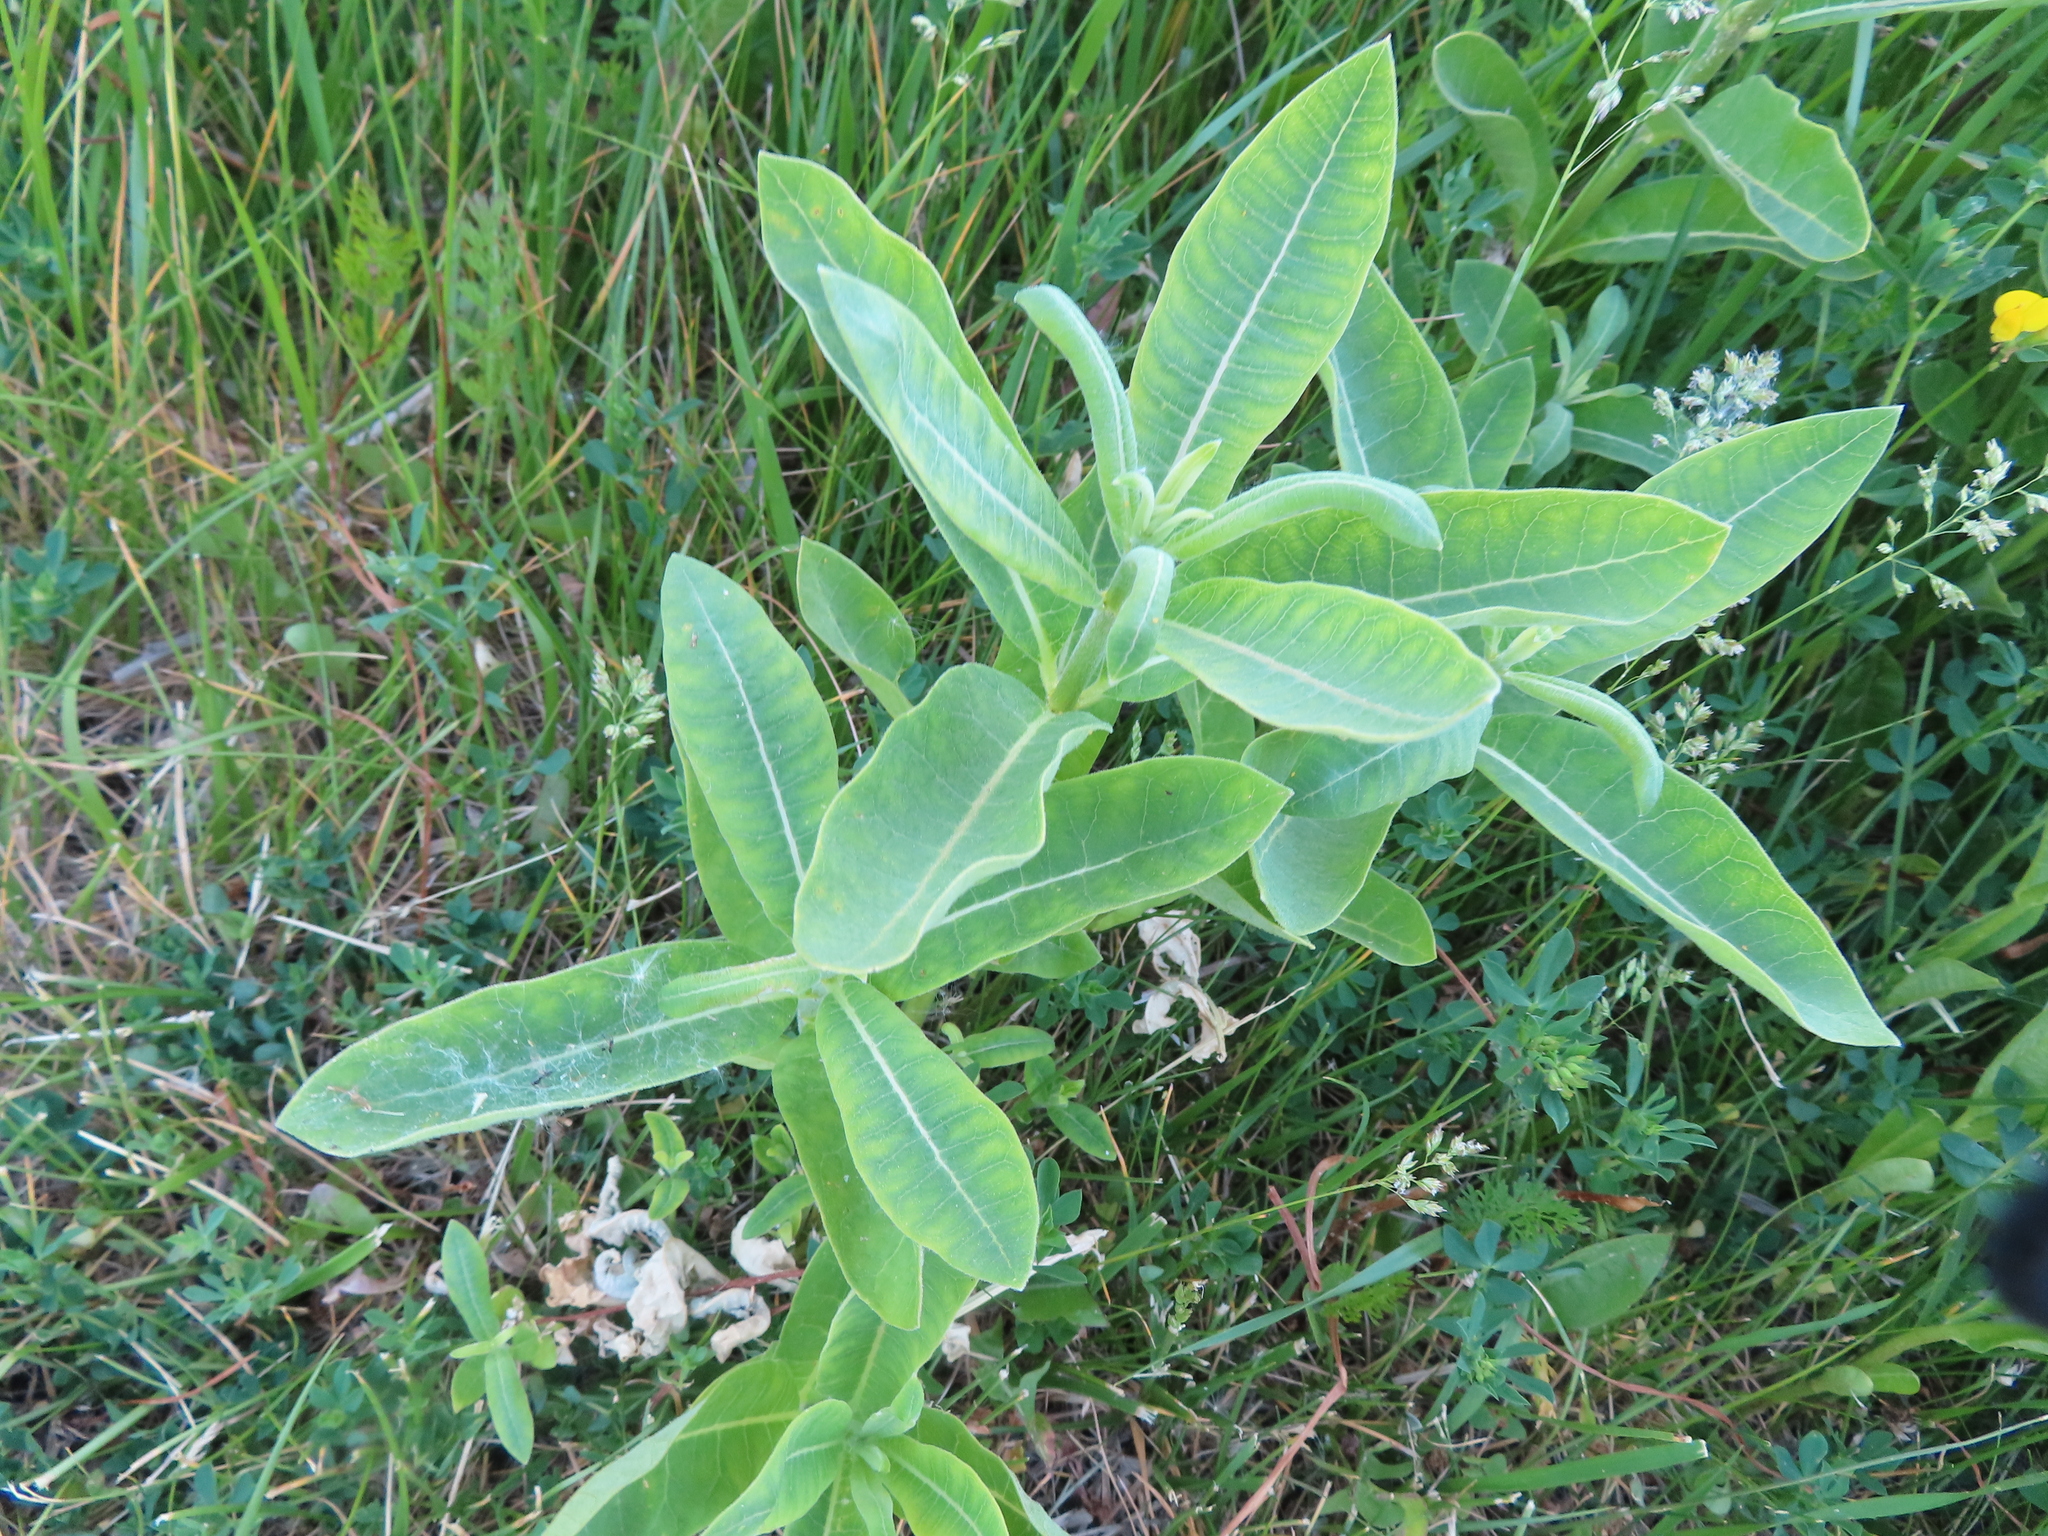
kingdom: Plantae
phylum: Tracheophyta
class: Magnoliopsida
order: Gentianales
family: Apocynaceae
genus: Asclepias
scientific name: Asclepias syriaca
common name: Common milkweed
